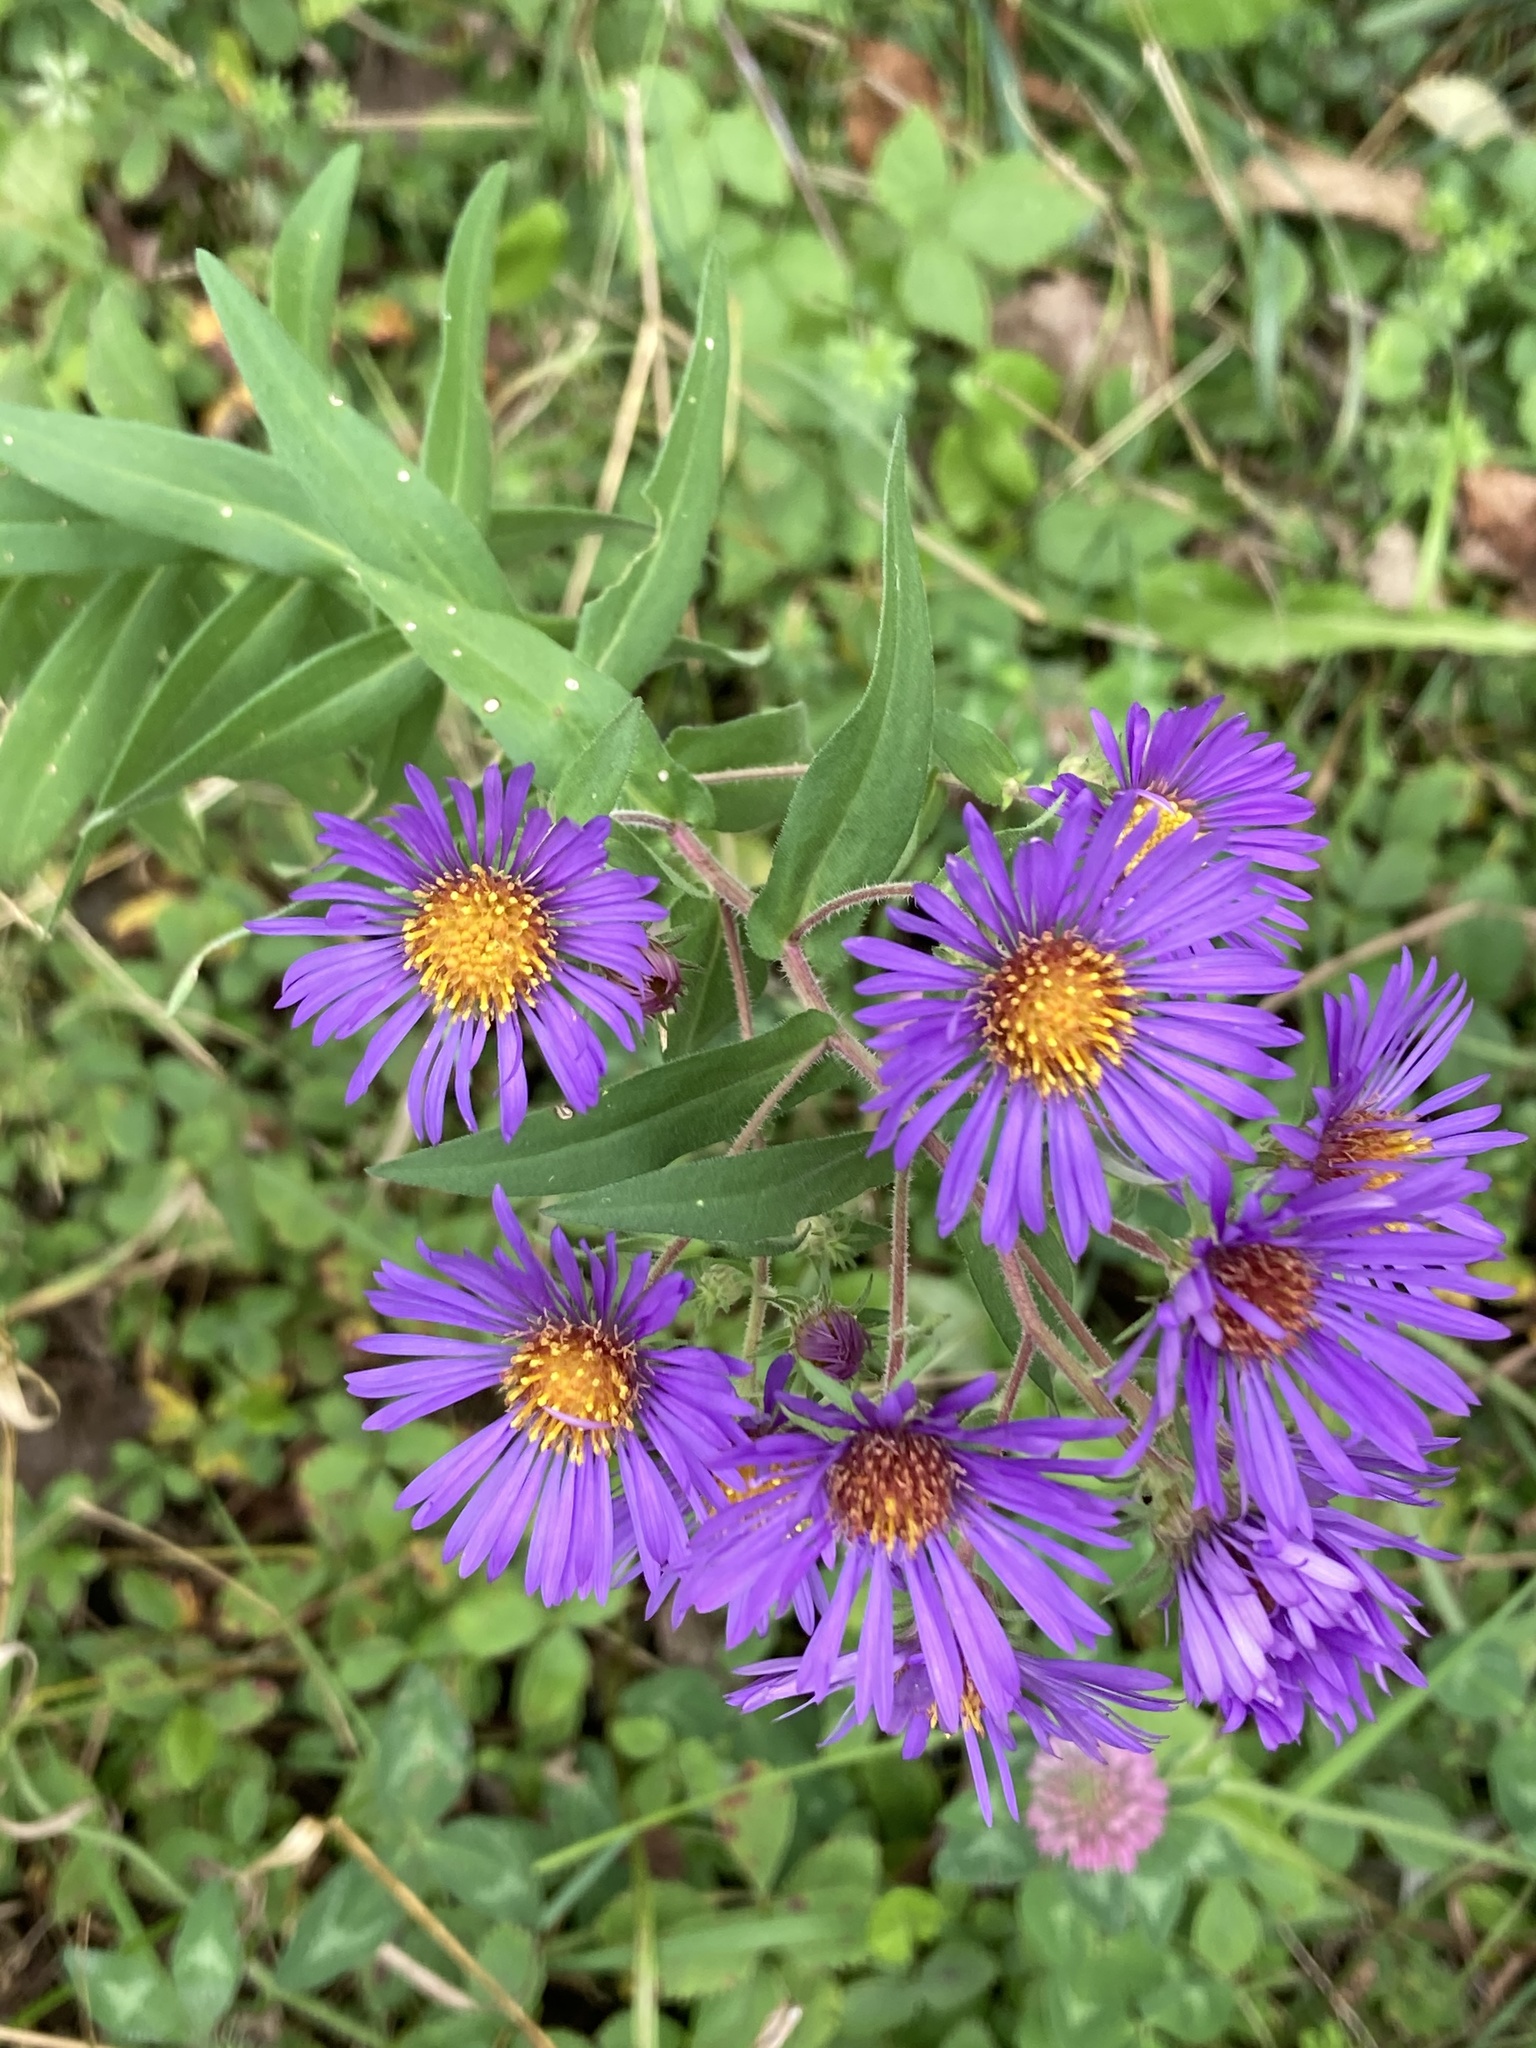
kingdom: Plantae
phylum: Tracheophyta
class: Magnoliopsida
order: Asterales
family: Asteraceae
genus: Symphyotrichum
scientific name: Symphyotrichum novae-angliae
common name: Michaelmas daisy
